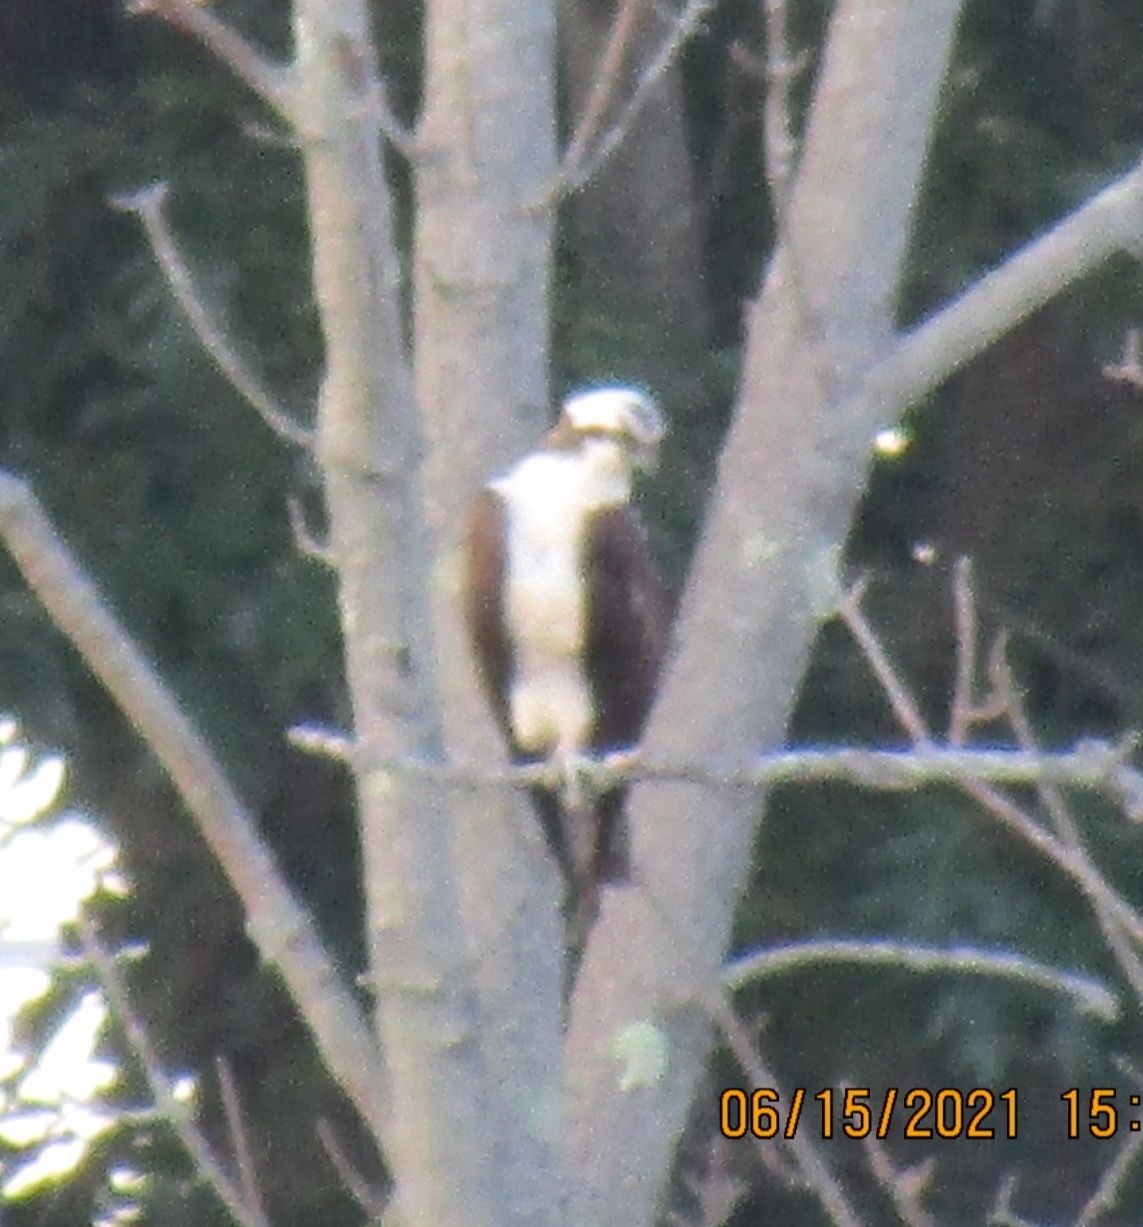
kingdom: Animalia
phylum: Chordata
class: Aves
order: Accipitriformes
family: Pandionidae
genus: Pandion
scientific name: Pandion haliaetus
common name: Osprey
